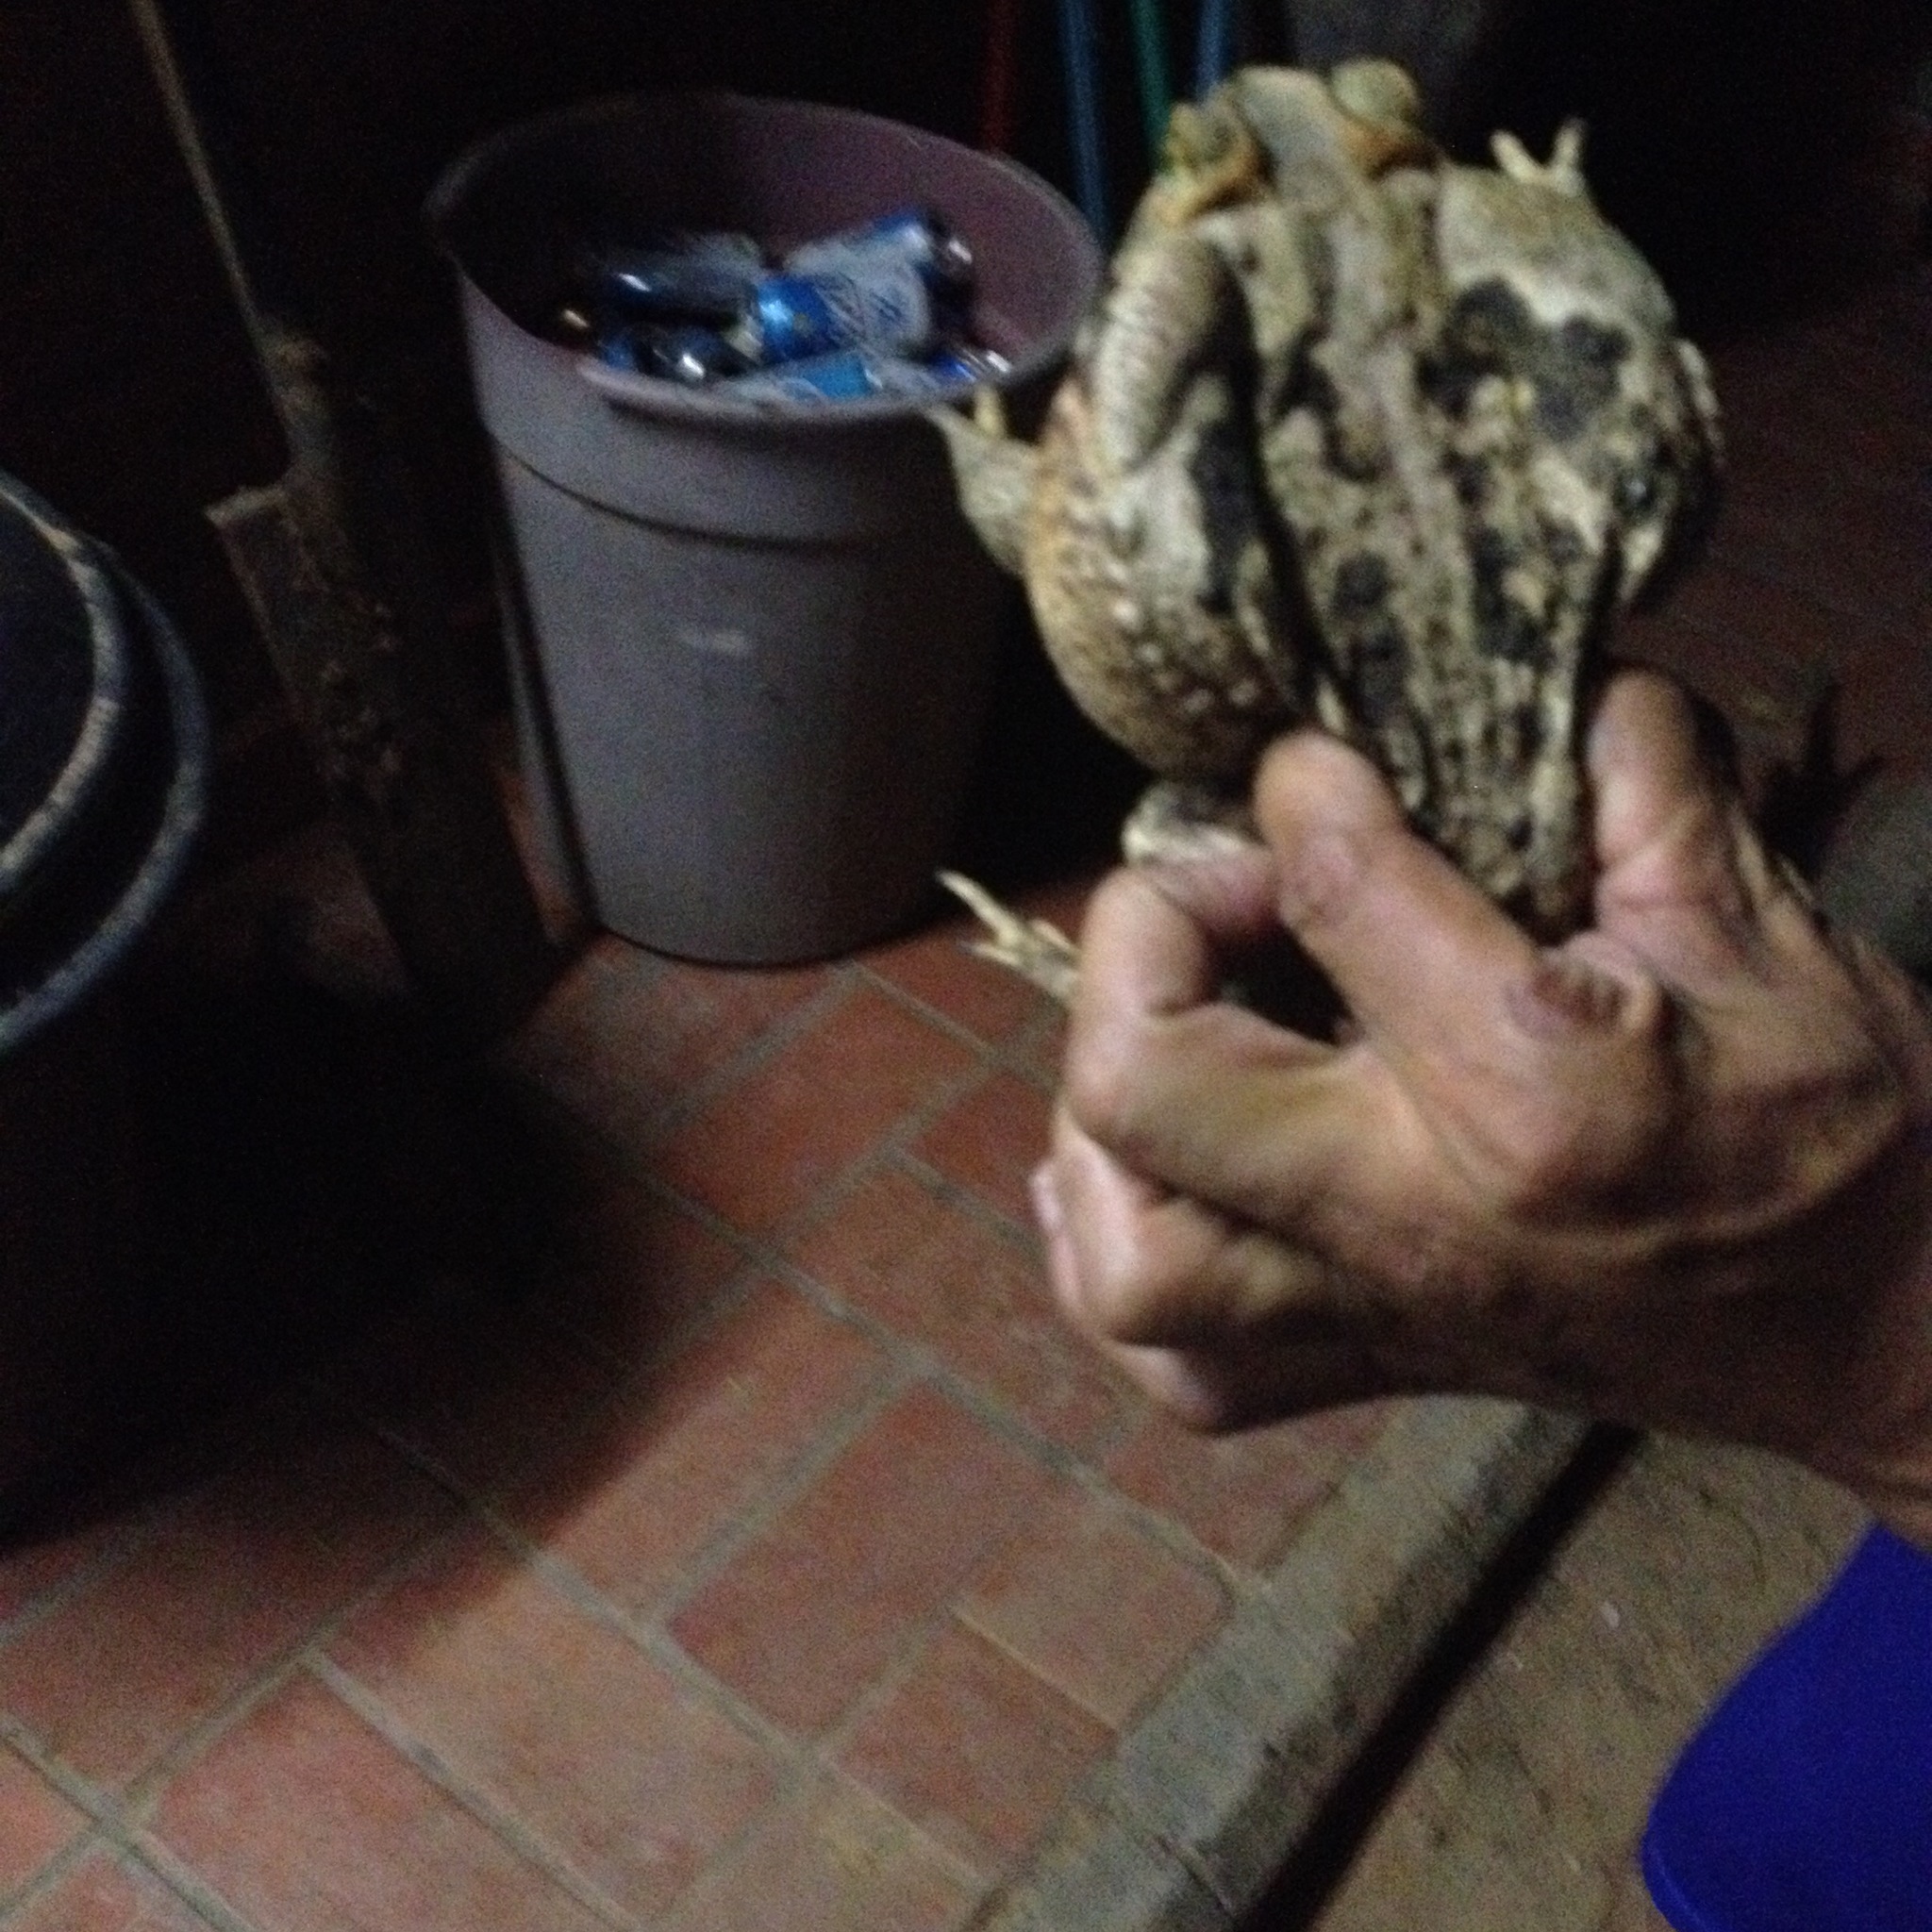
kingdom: Animalia
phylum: Chordata
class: Amphibia
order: Anura
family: Bufonidae
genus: Rhinella
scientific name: Rhinella diptycha
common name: Cope's toad
